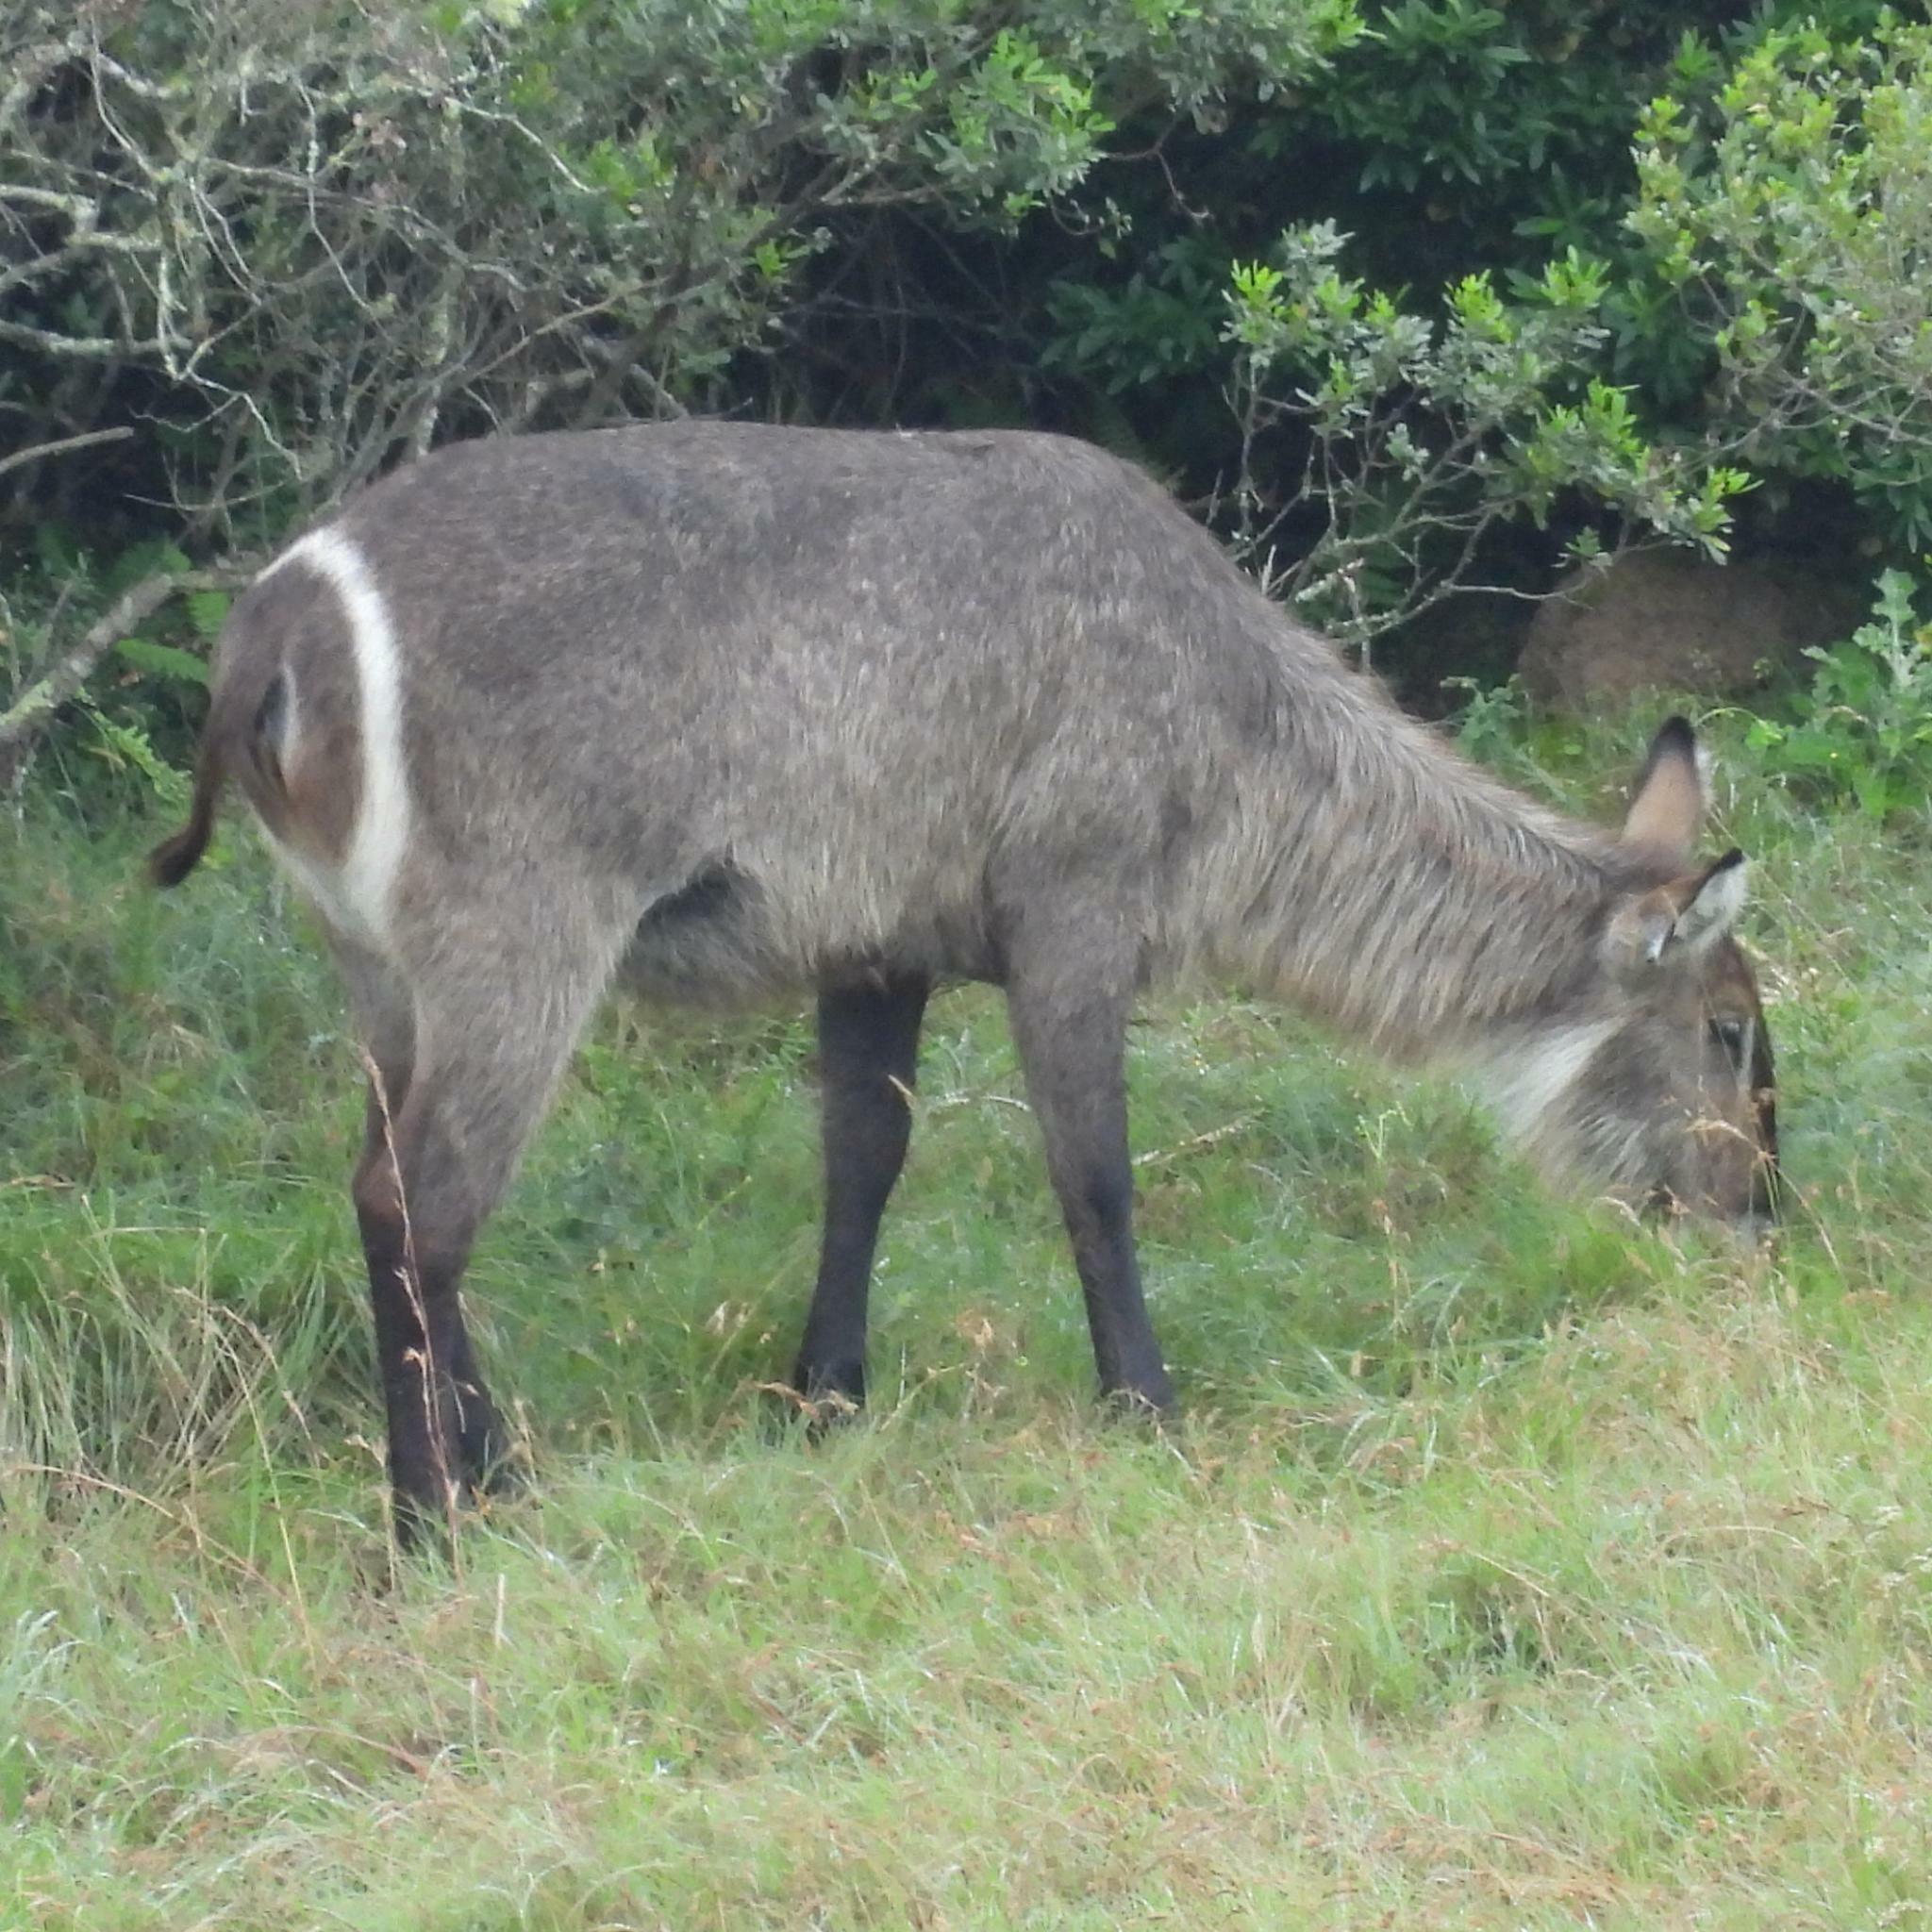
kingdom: Animalia
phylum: Chordata
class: Mammalia
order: Artiodactyla
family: Bovidae
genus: Kobus
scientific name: Kobus ellipsiprymnus
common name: Waterbuck
